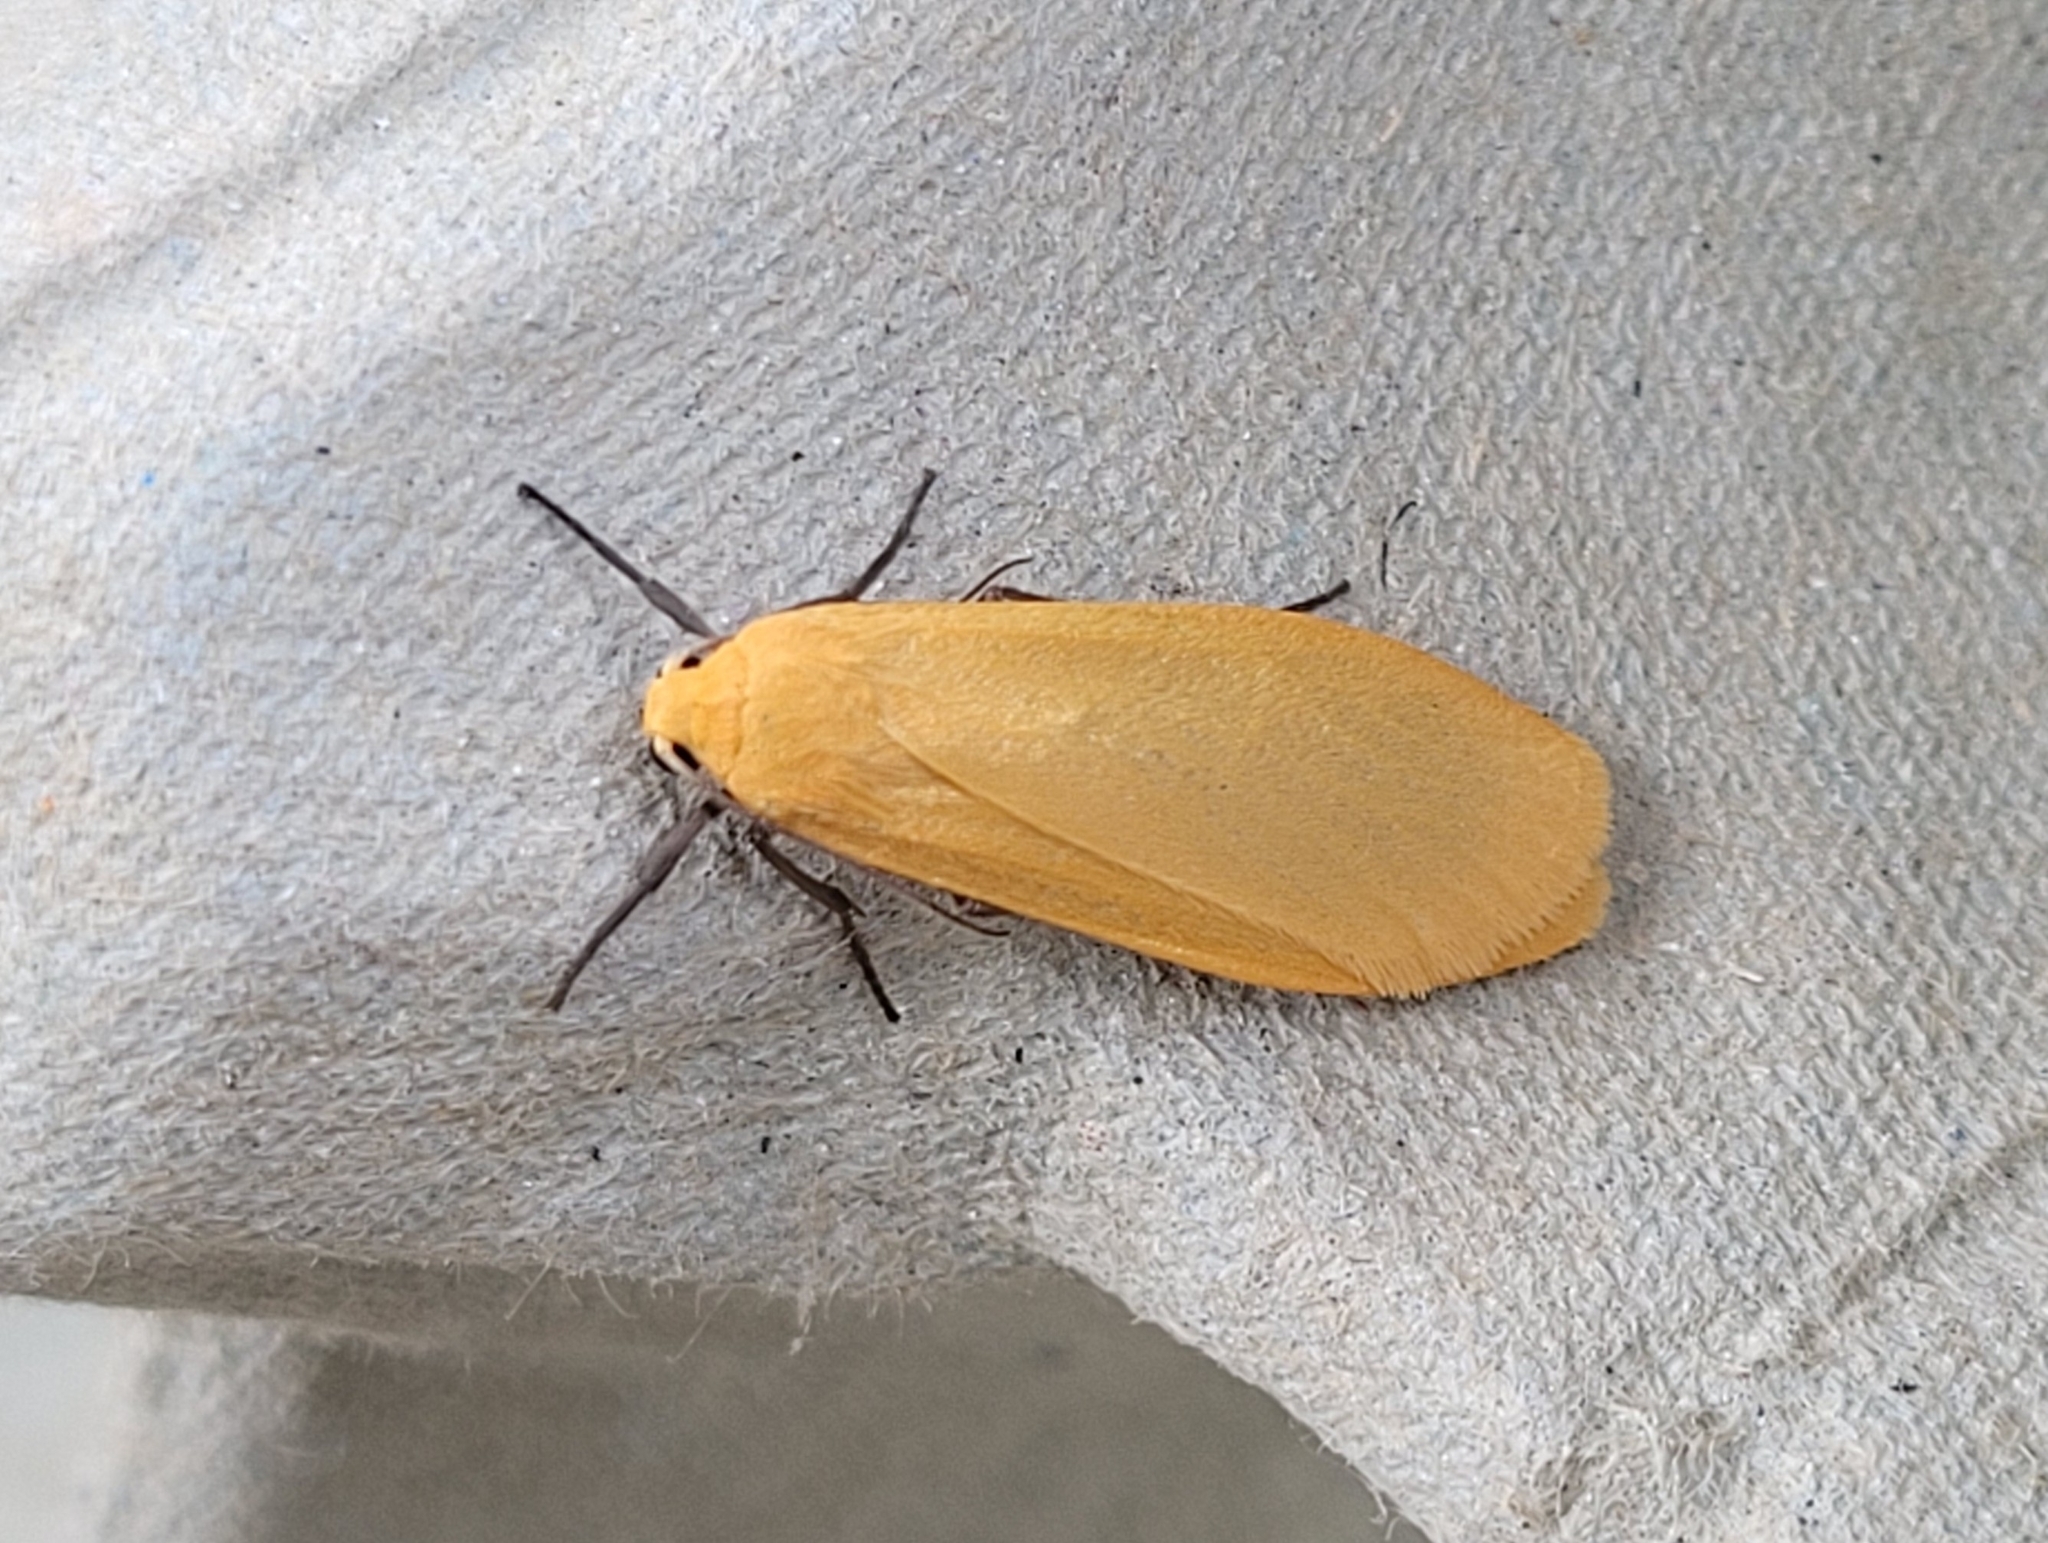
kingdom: Animalia
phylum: Arthropoda
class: Insecta
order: Lepidoptera
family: Erebidae
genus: Wittia
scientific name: Wittia sororcula
